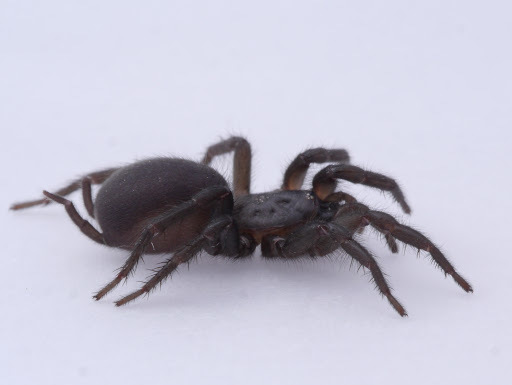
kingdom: Animalia
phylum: Arthropoda
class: Arachnida
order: Araneae
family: Euagridae
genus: Euagrus
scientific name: Euagrus chisoseus
